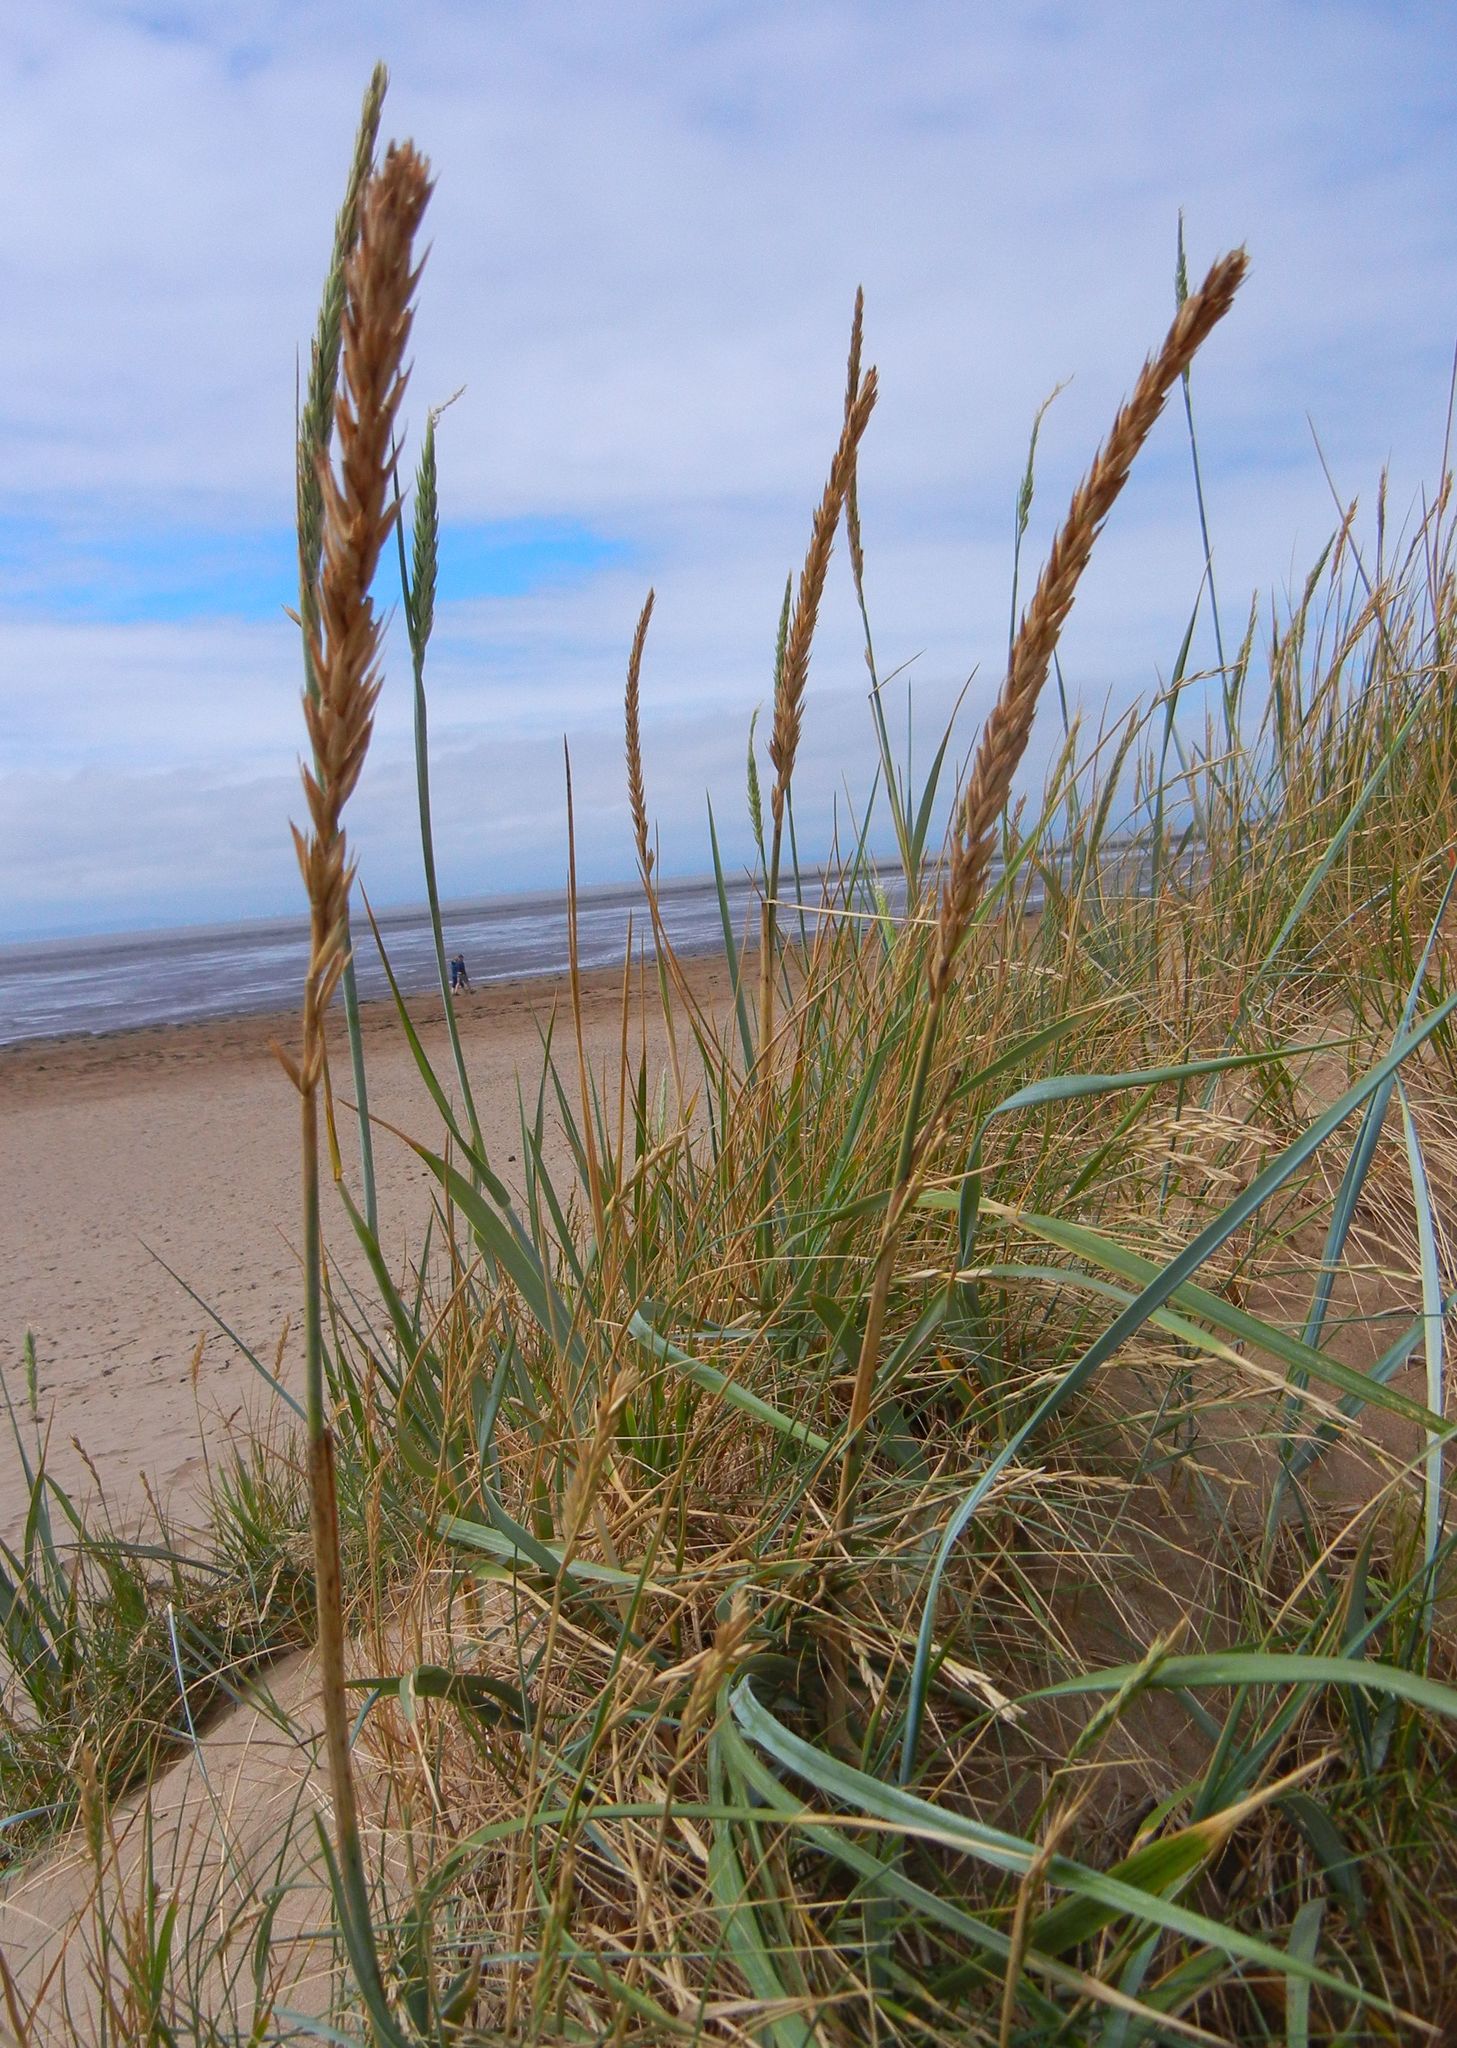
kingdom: Plantae
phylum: Tracheophyta
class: Liliopsida
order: Poales
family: Poaceae
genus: Leymus
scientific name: Leymus arenarius
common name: Lyme-grass
